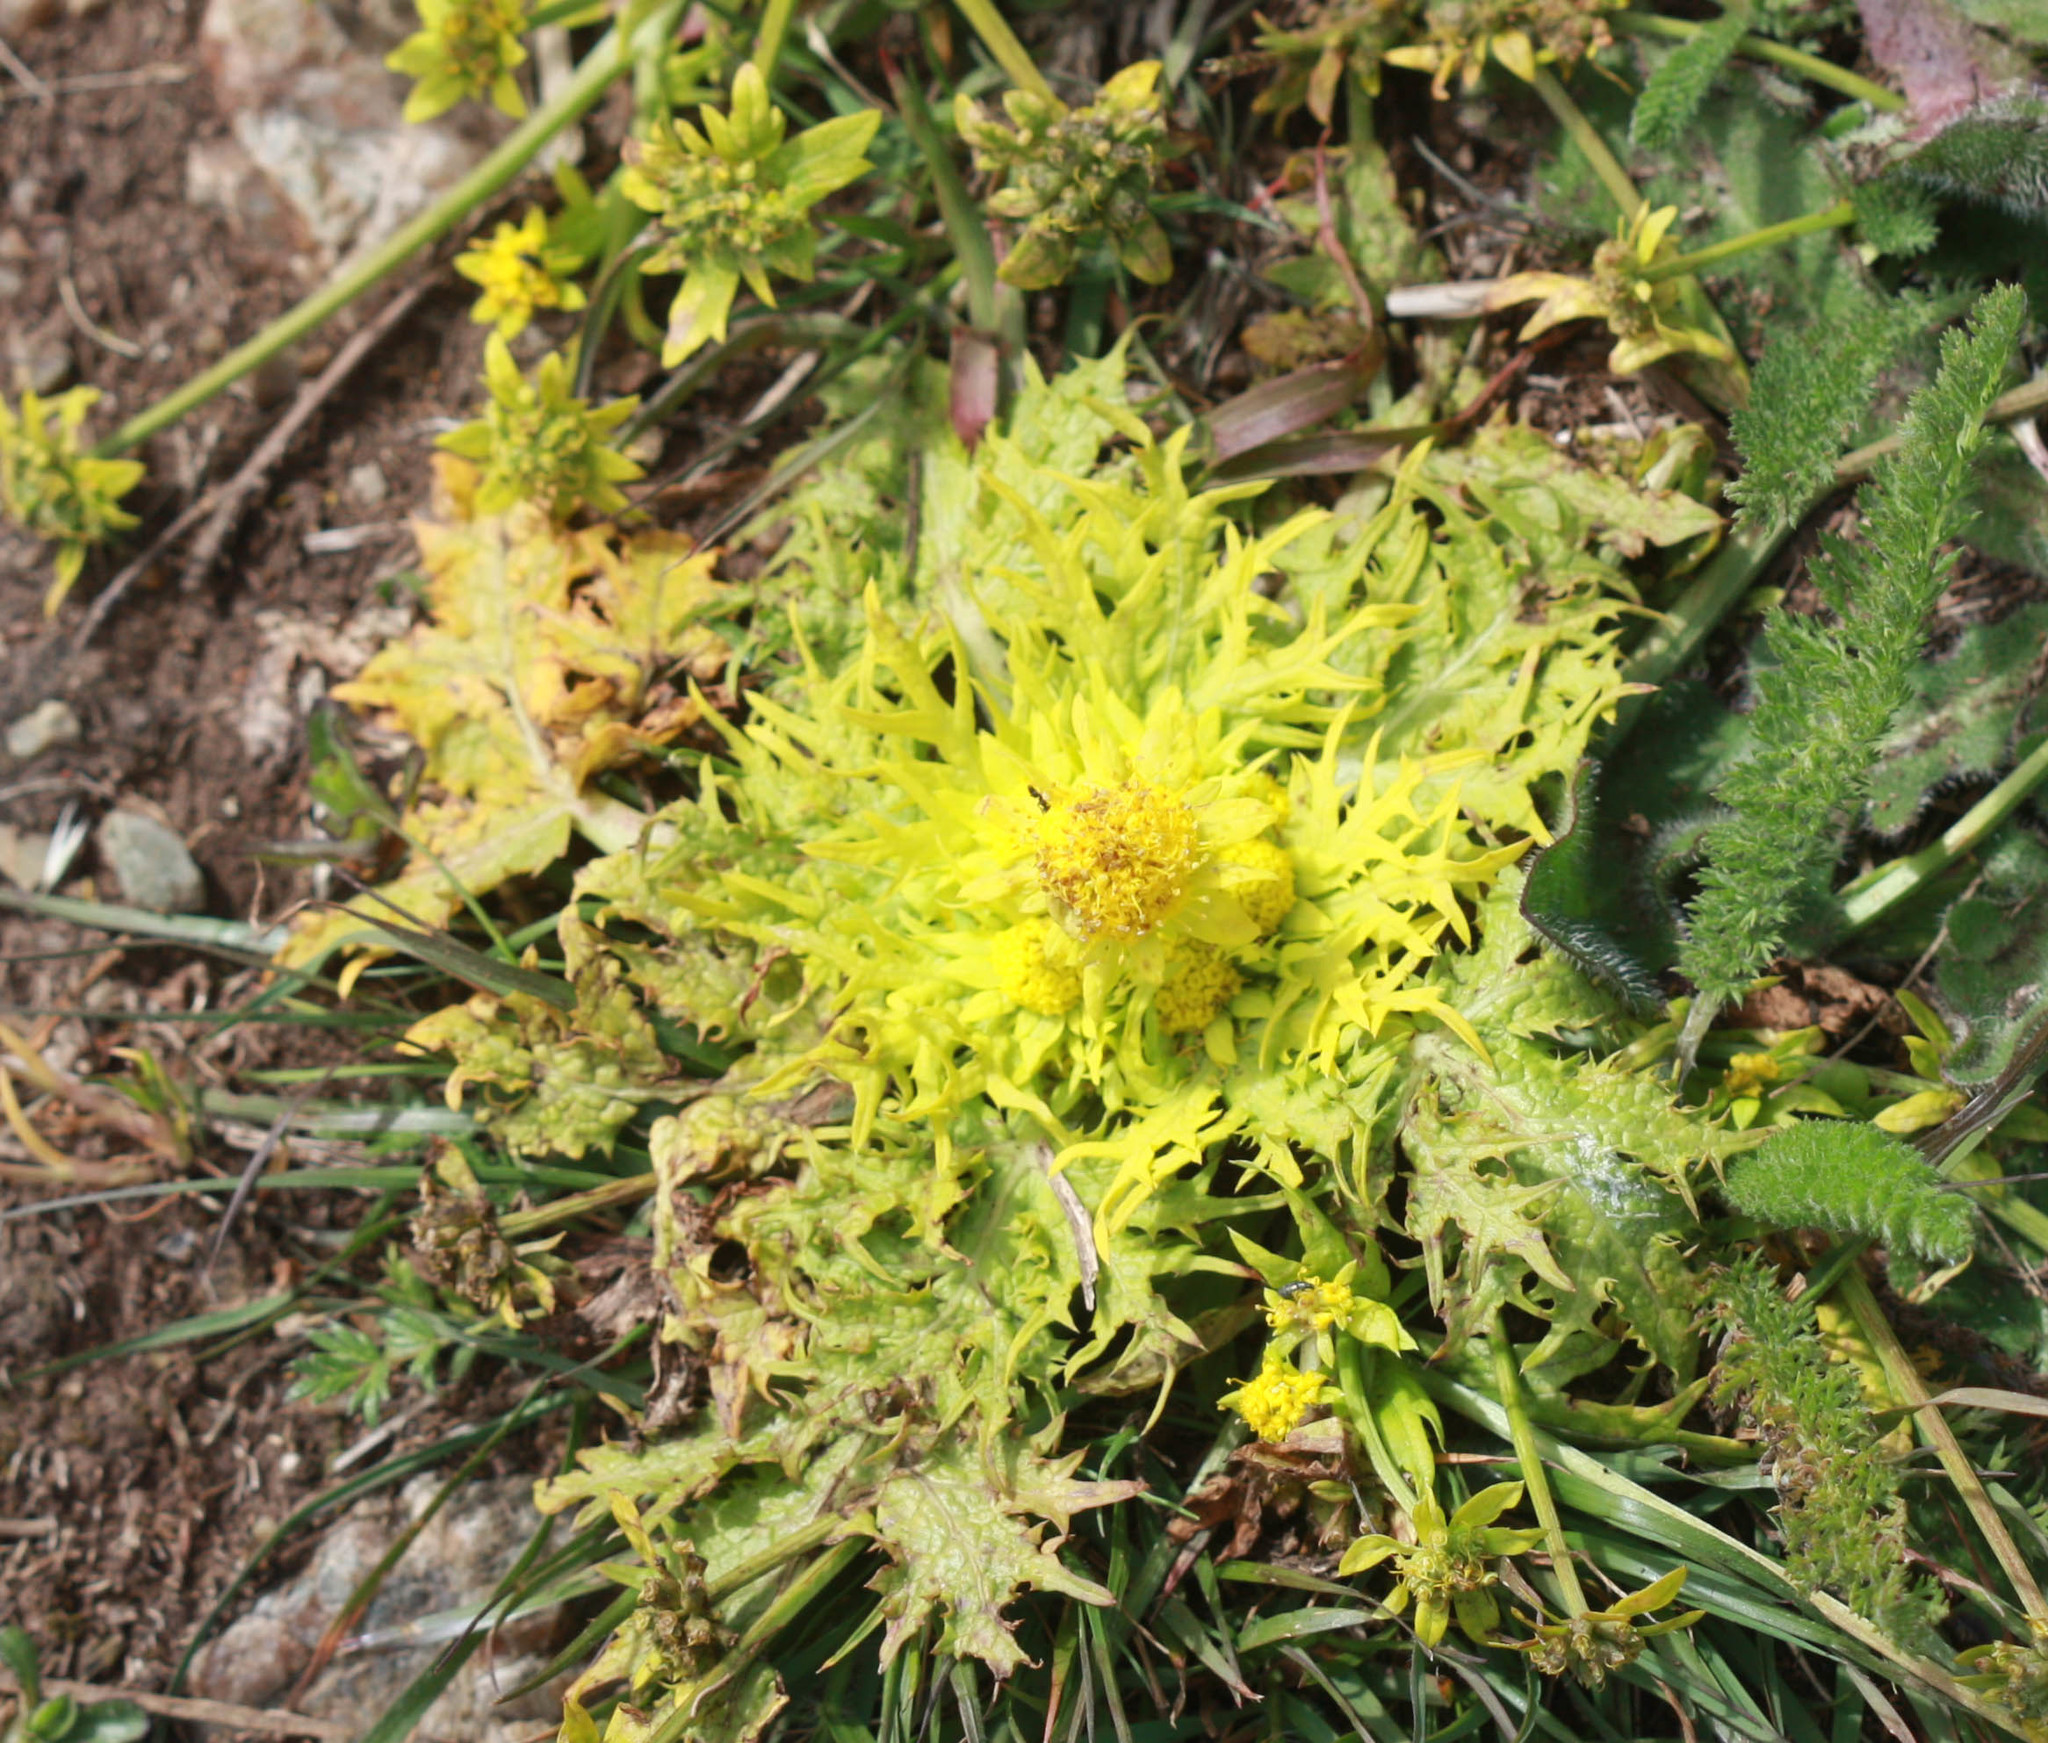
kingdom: Plantae
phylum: Tracheophyta
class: Magnoliopsida
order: Apiales
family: Apiaceae
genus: Sanicula
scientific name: Sanicula arctopoides
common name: Footsteps-of-spring
